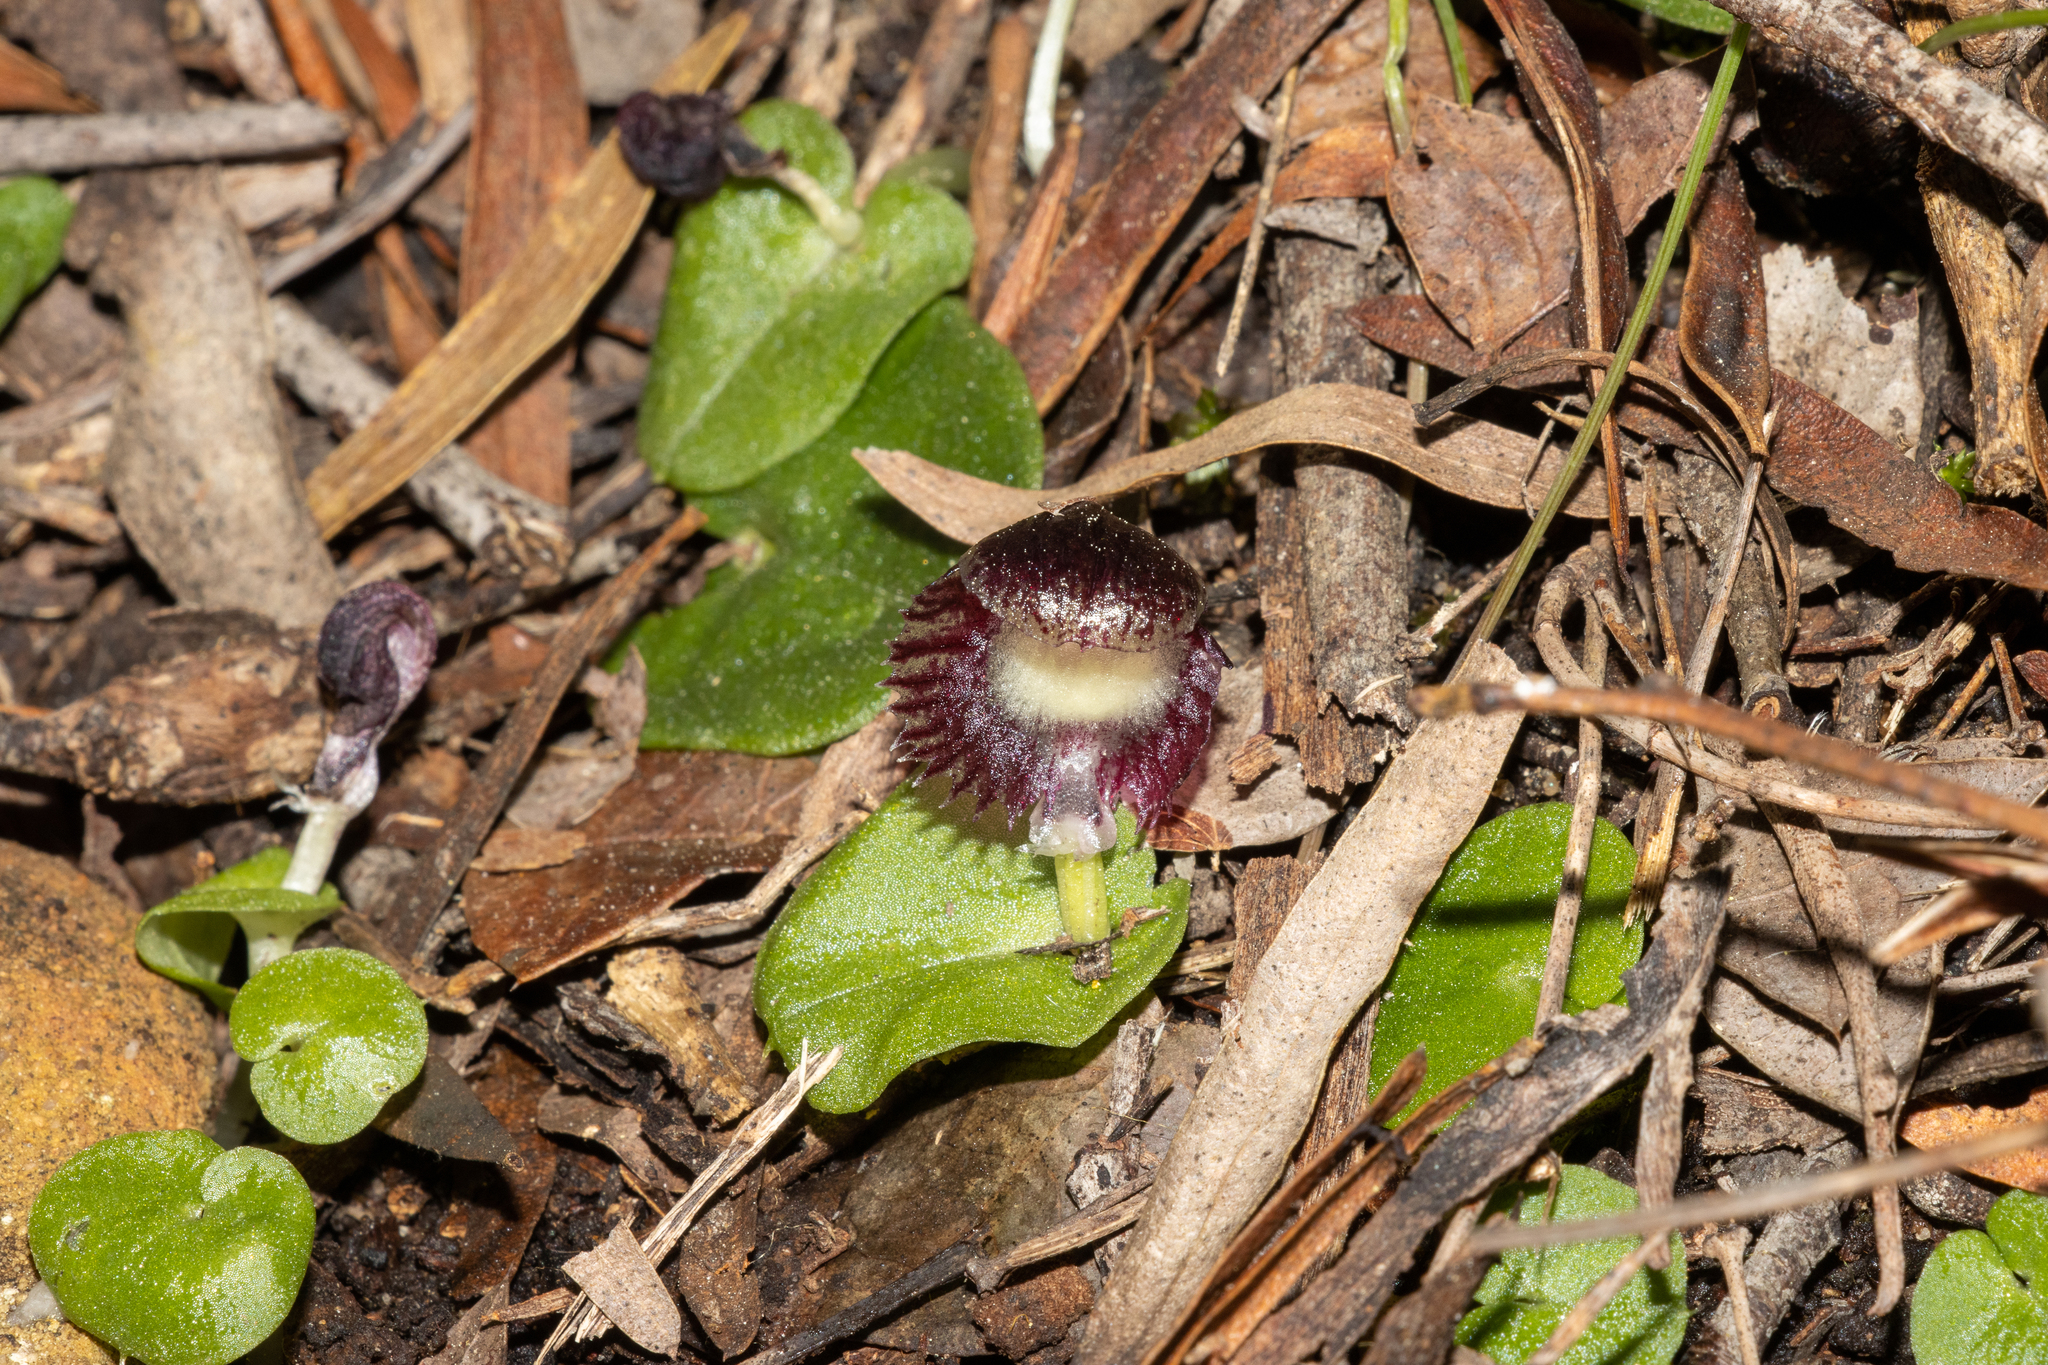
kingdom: Plantae
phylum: Tracheophyta
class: Liliopsida
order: Asparagales
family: Orchidaceae
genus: Corybas
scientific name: Corybas diemenicus
